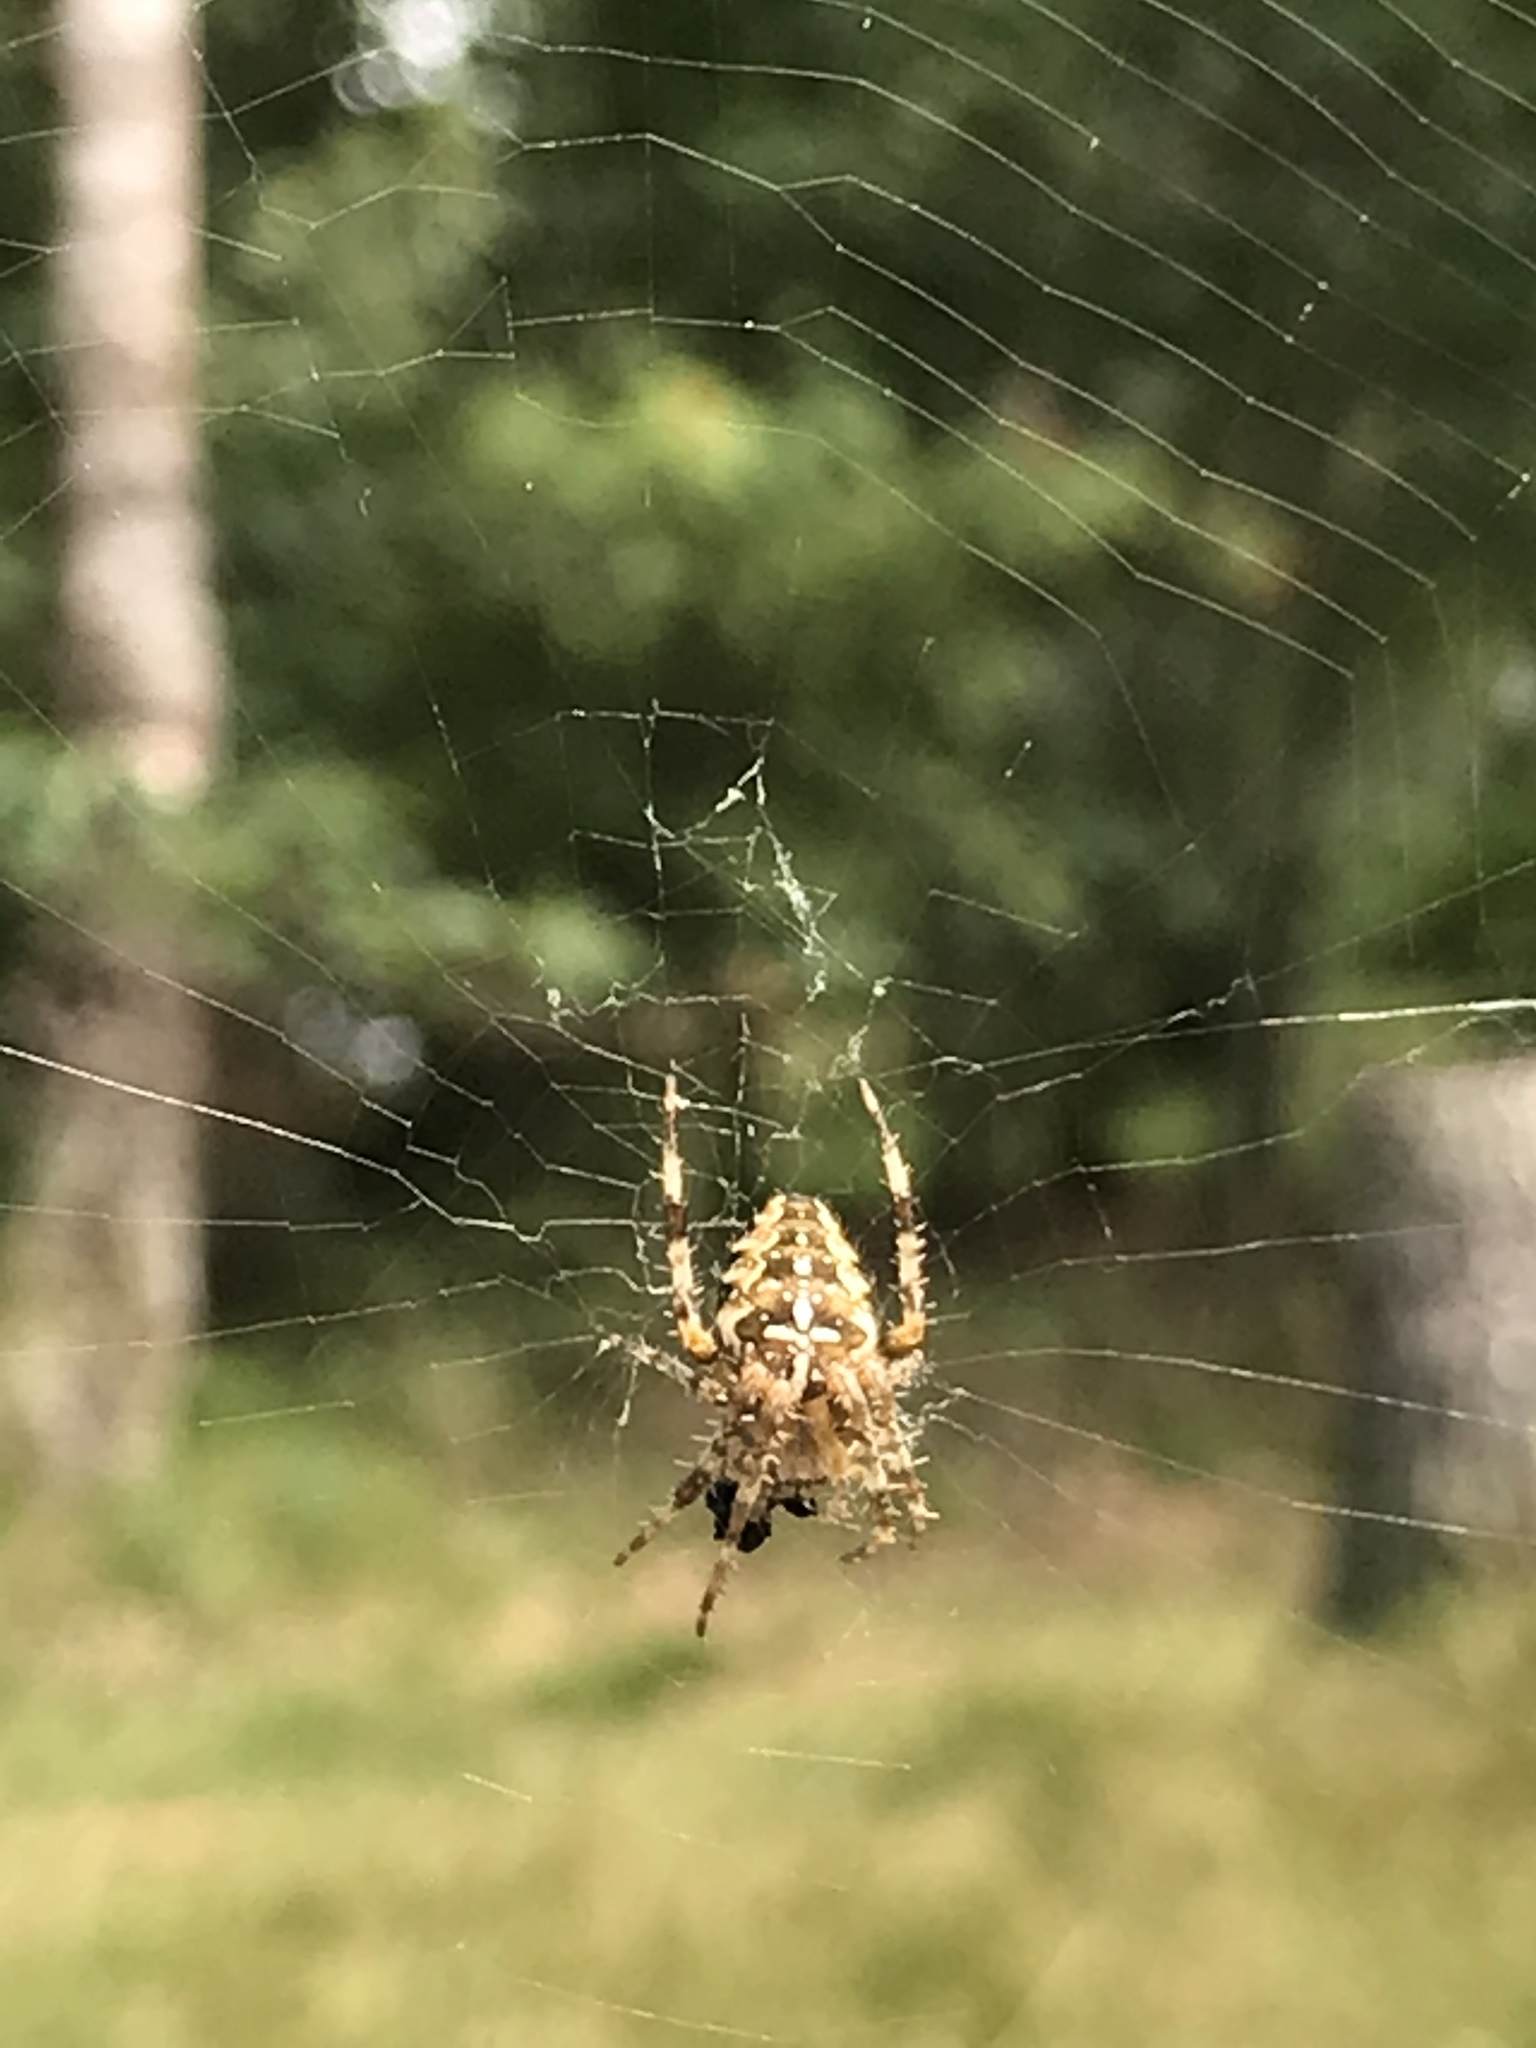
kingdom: Animalia
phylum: Arthropoda
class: Arachnida
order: Araneae
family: Araneidae
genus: Araneus
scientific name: Araneus diadematus
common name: Cross orbweaver
